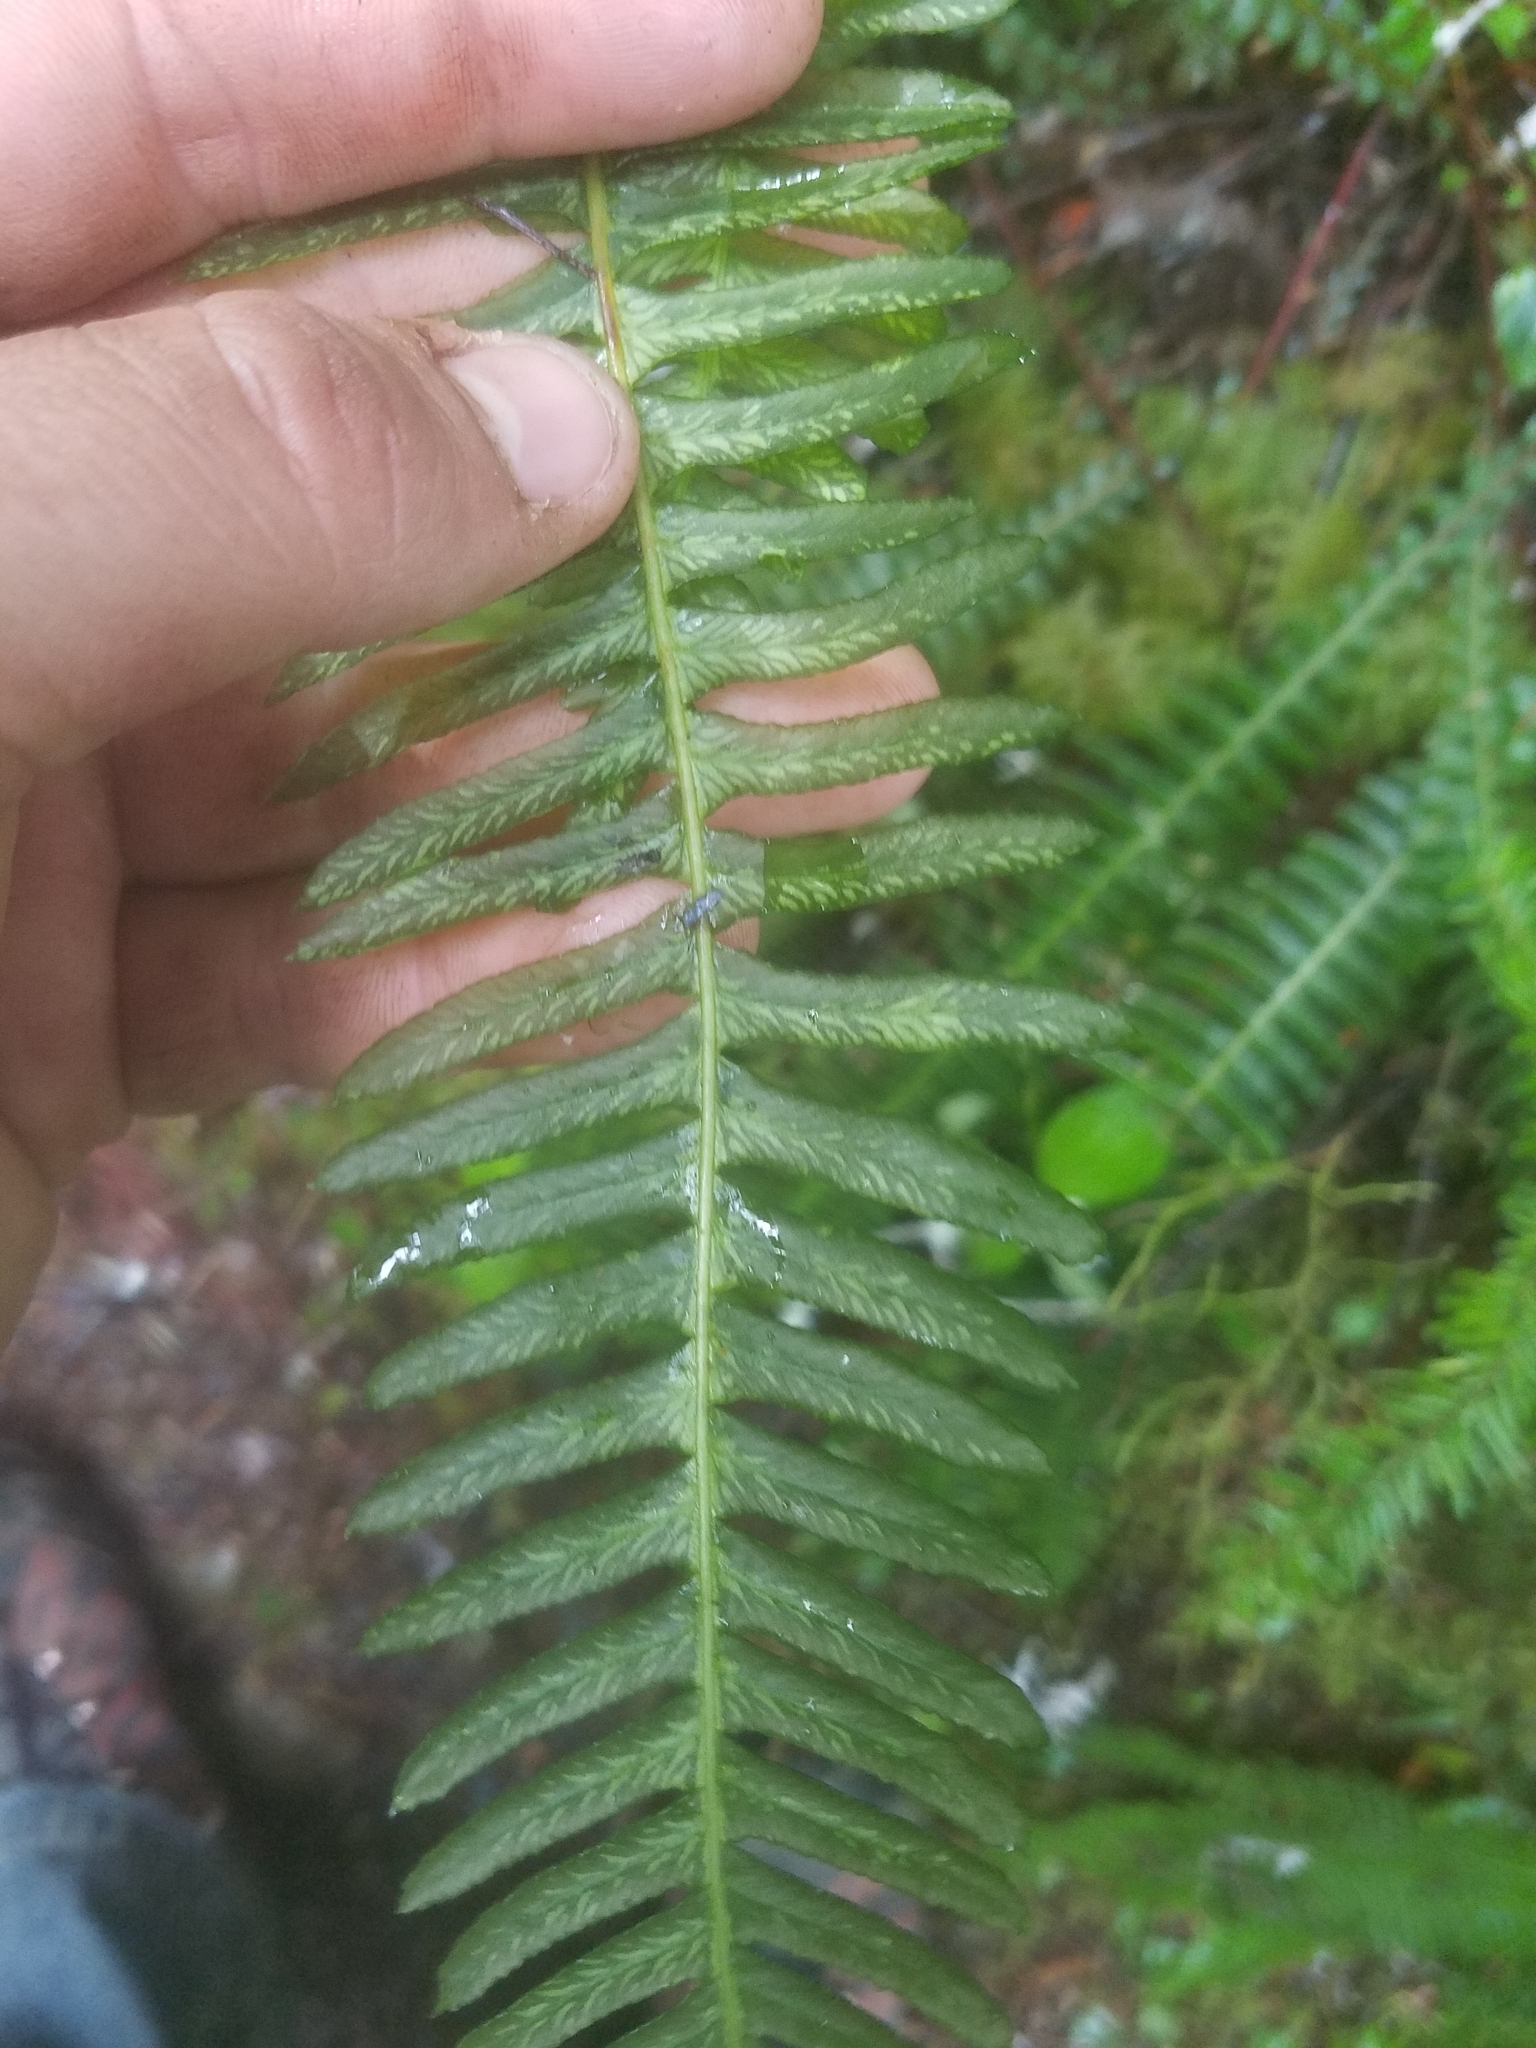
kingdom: Plantae
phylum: Tracheophyta
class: Polypodiopsida
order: Polypodiales
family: Blechnaceae
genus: Struthiopteris
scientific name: Struthiopteris spicant
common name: Deer fern
